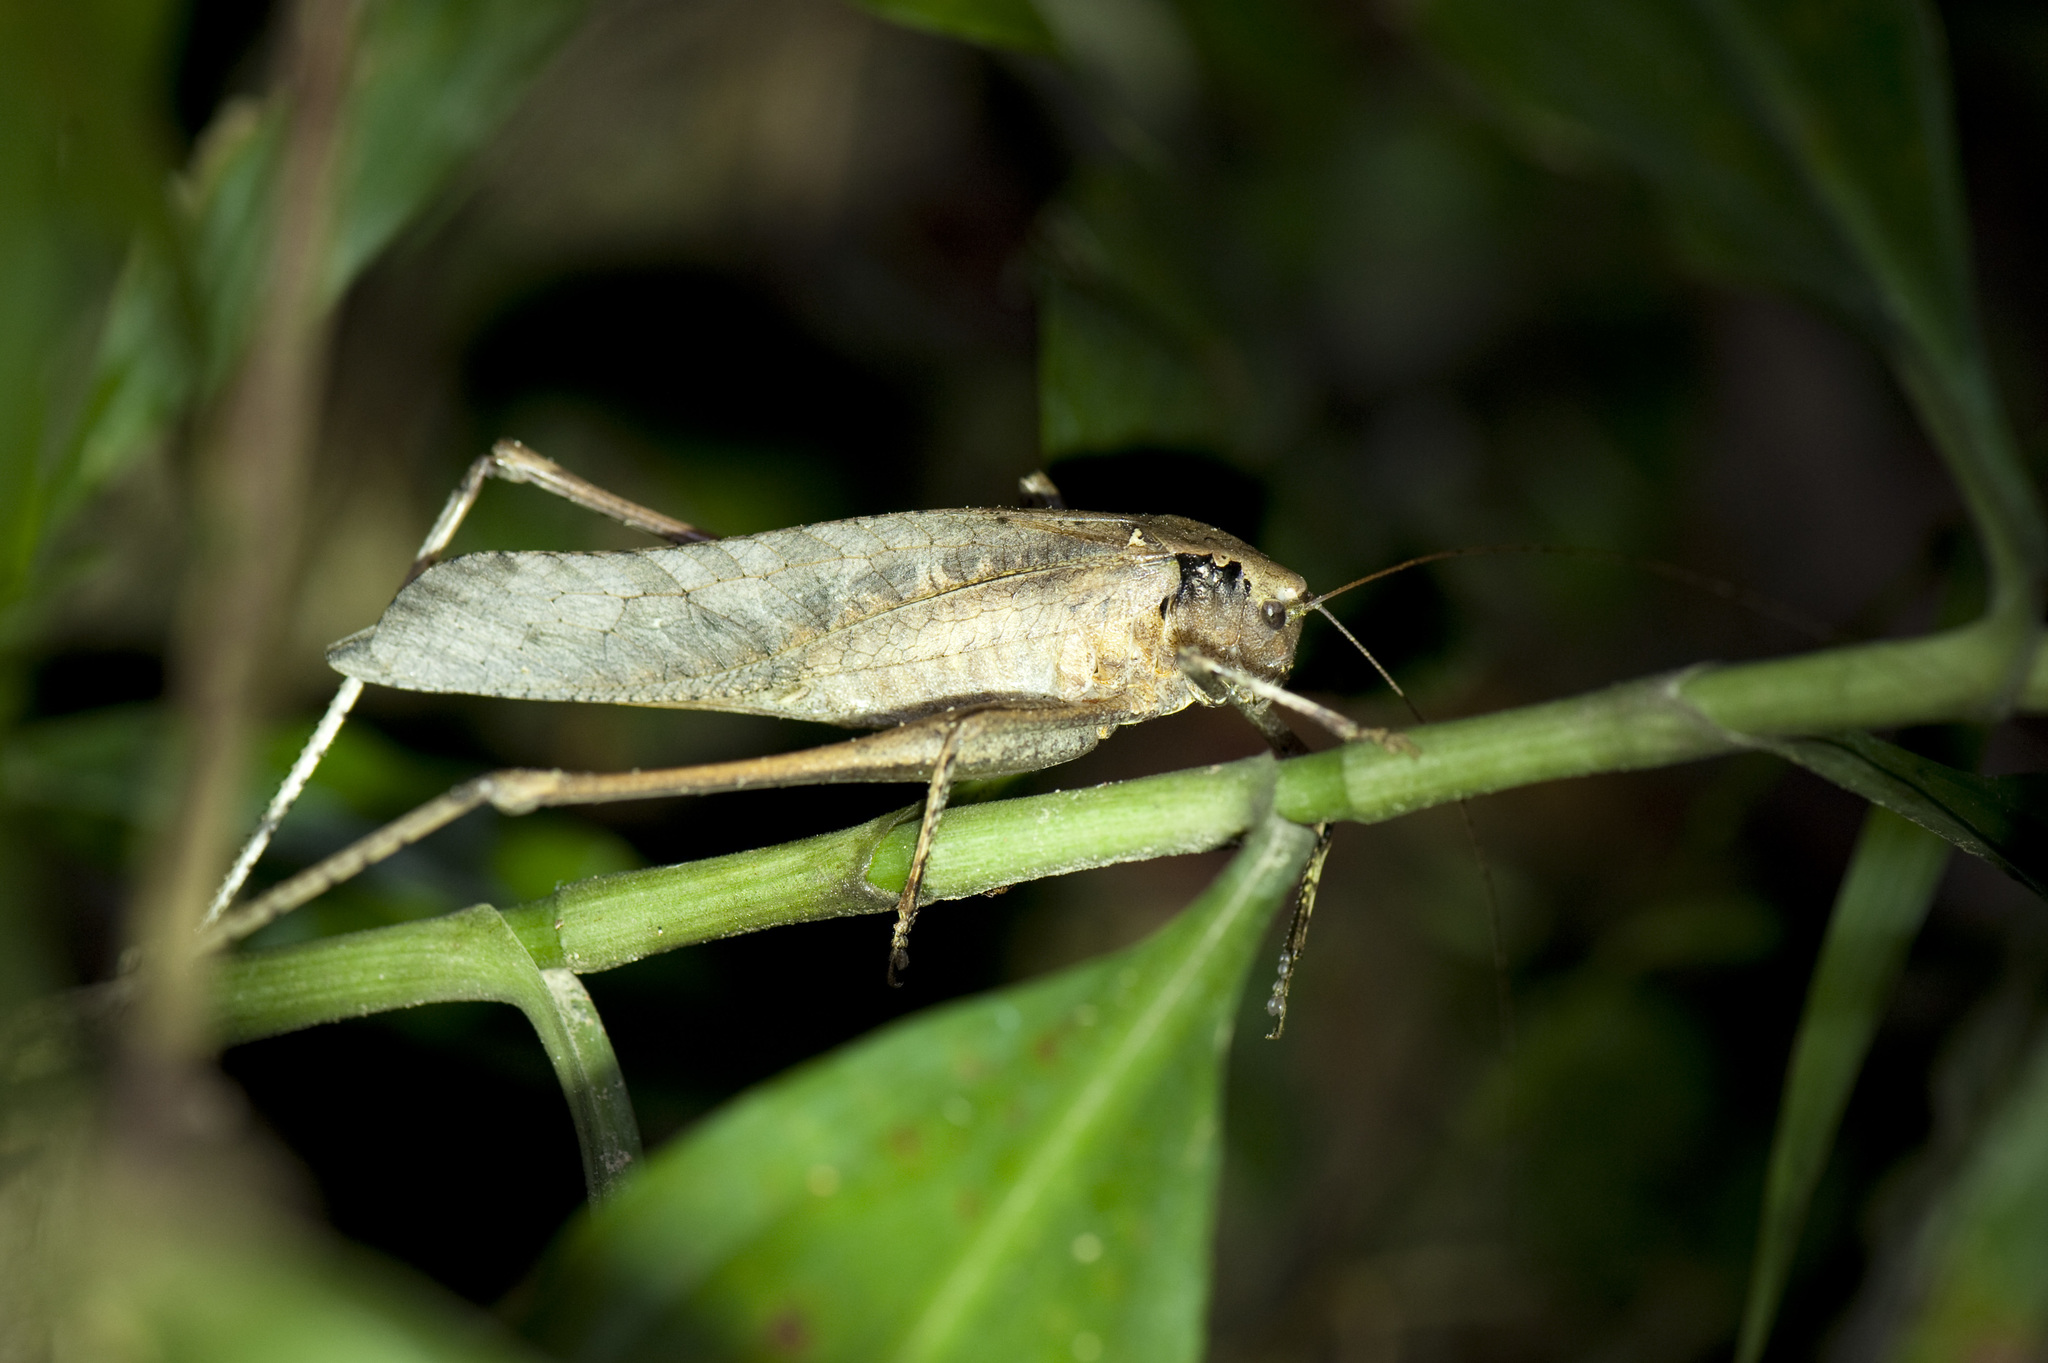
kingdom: Animalia
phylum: Arthropoda
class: Insecta
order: Orthoptera
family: Tettigoniidae
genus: Mecopoda
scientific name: Mecopoda elongata
